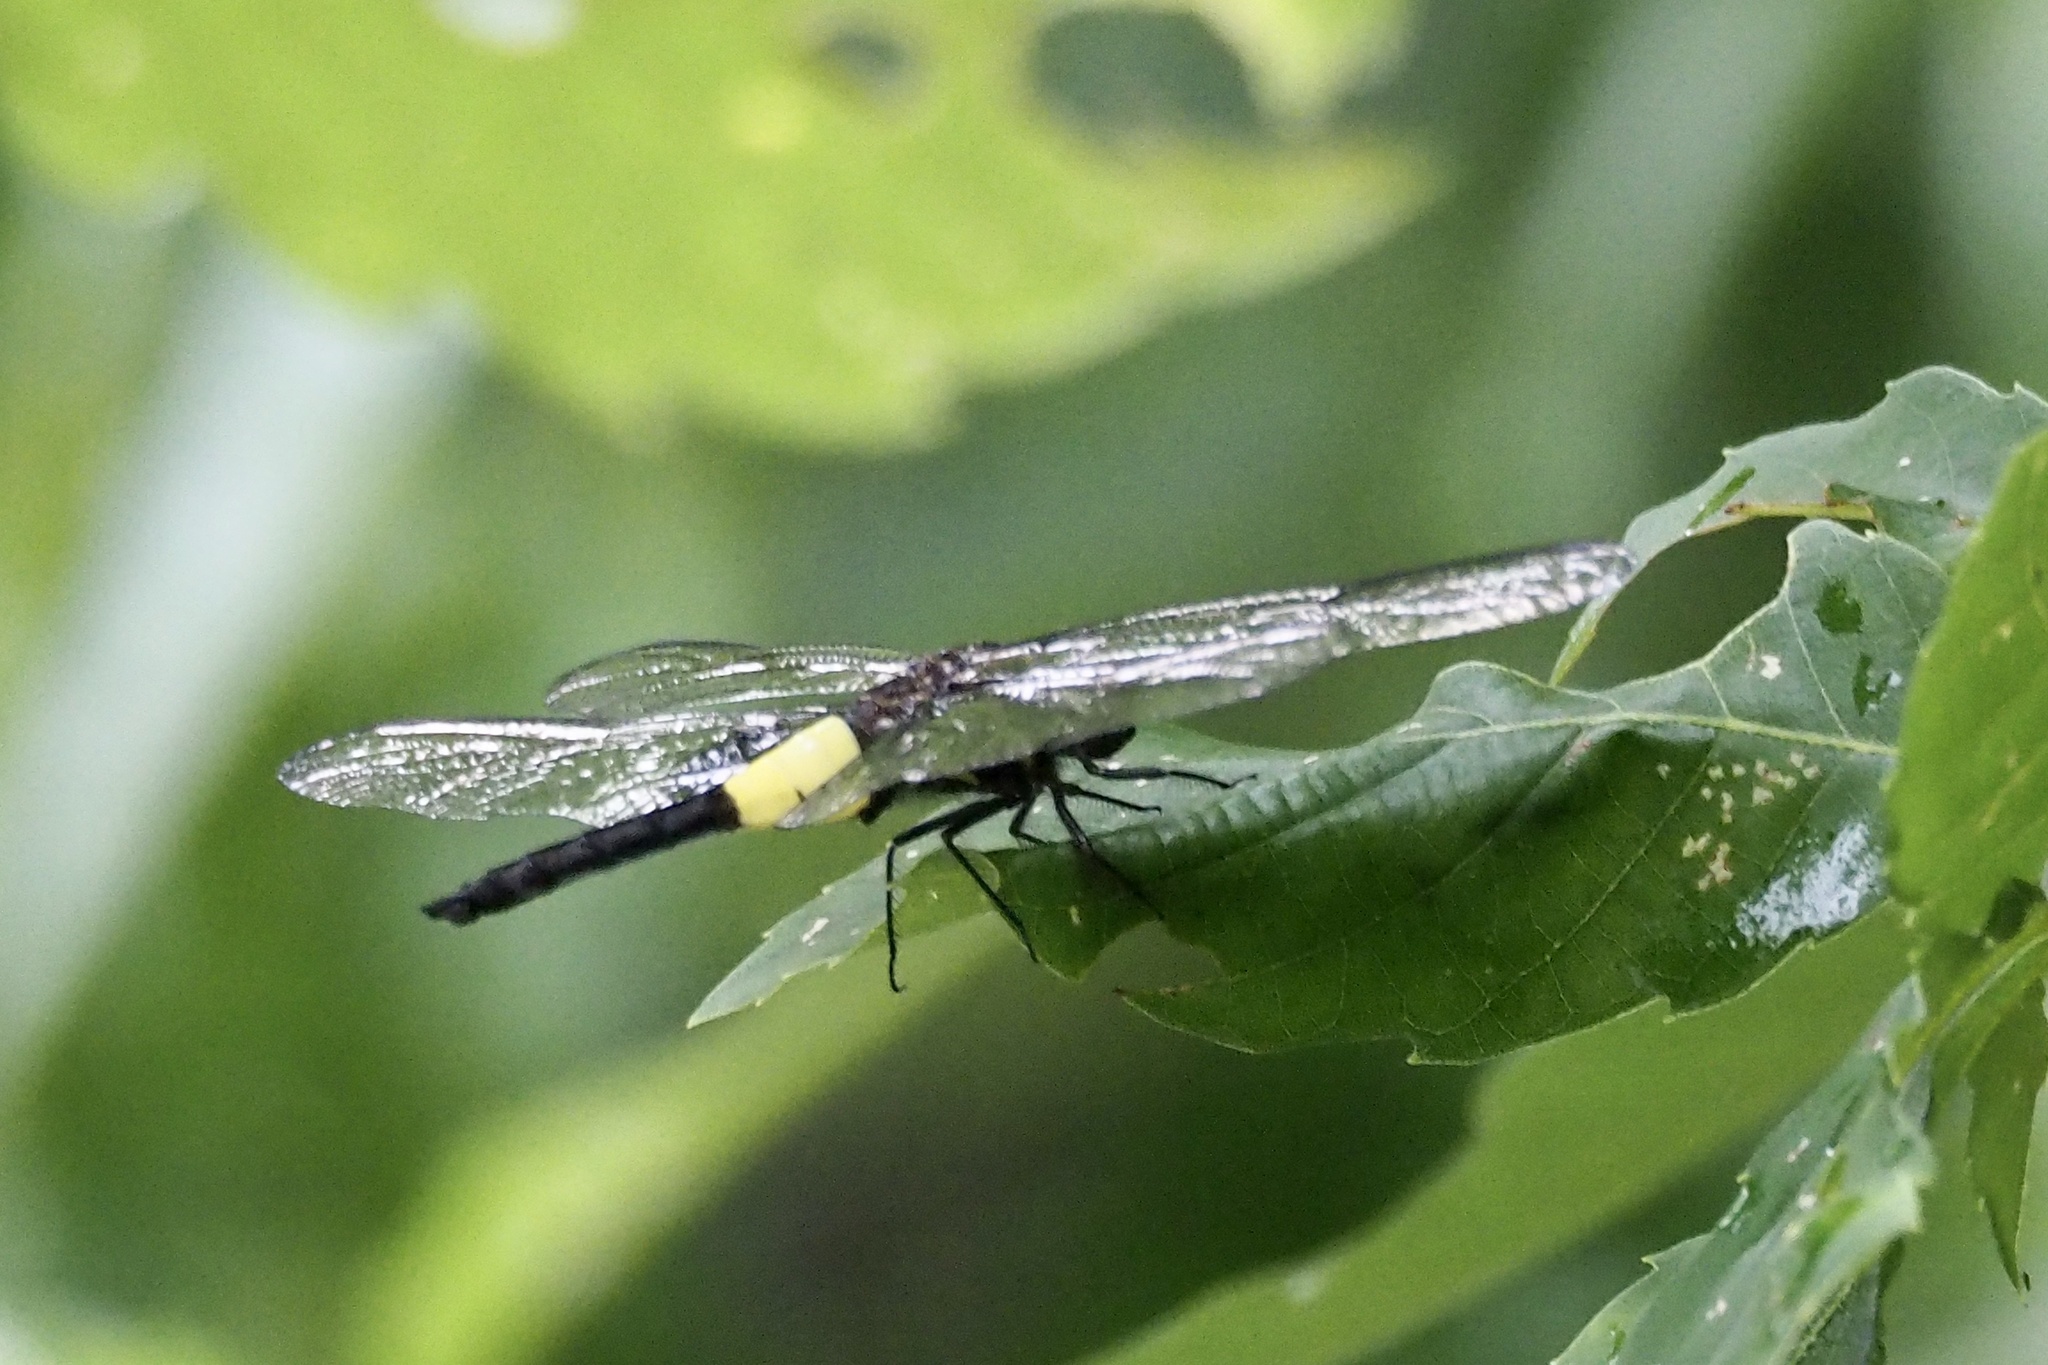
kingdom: Animalia
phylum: Arthropoda
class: Insecta
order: Odonata
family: Libellulidae
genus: Pseudothemis
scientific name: Pseudothemis zonata
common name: Pied skimmer
